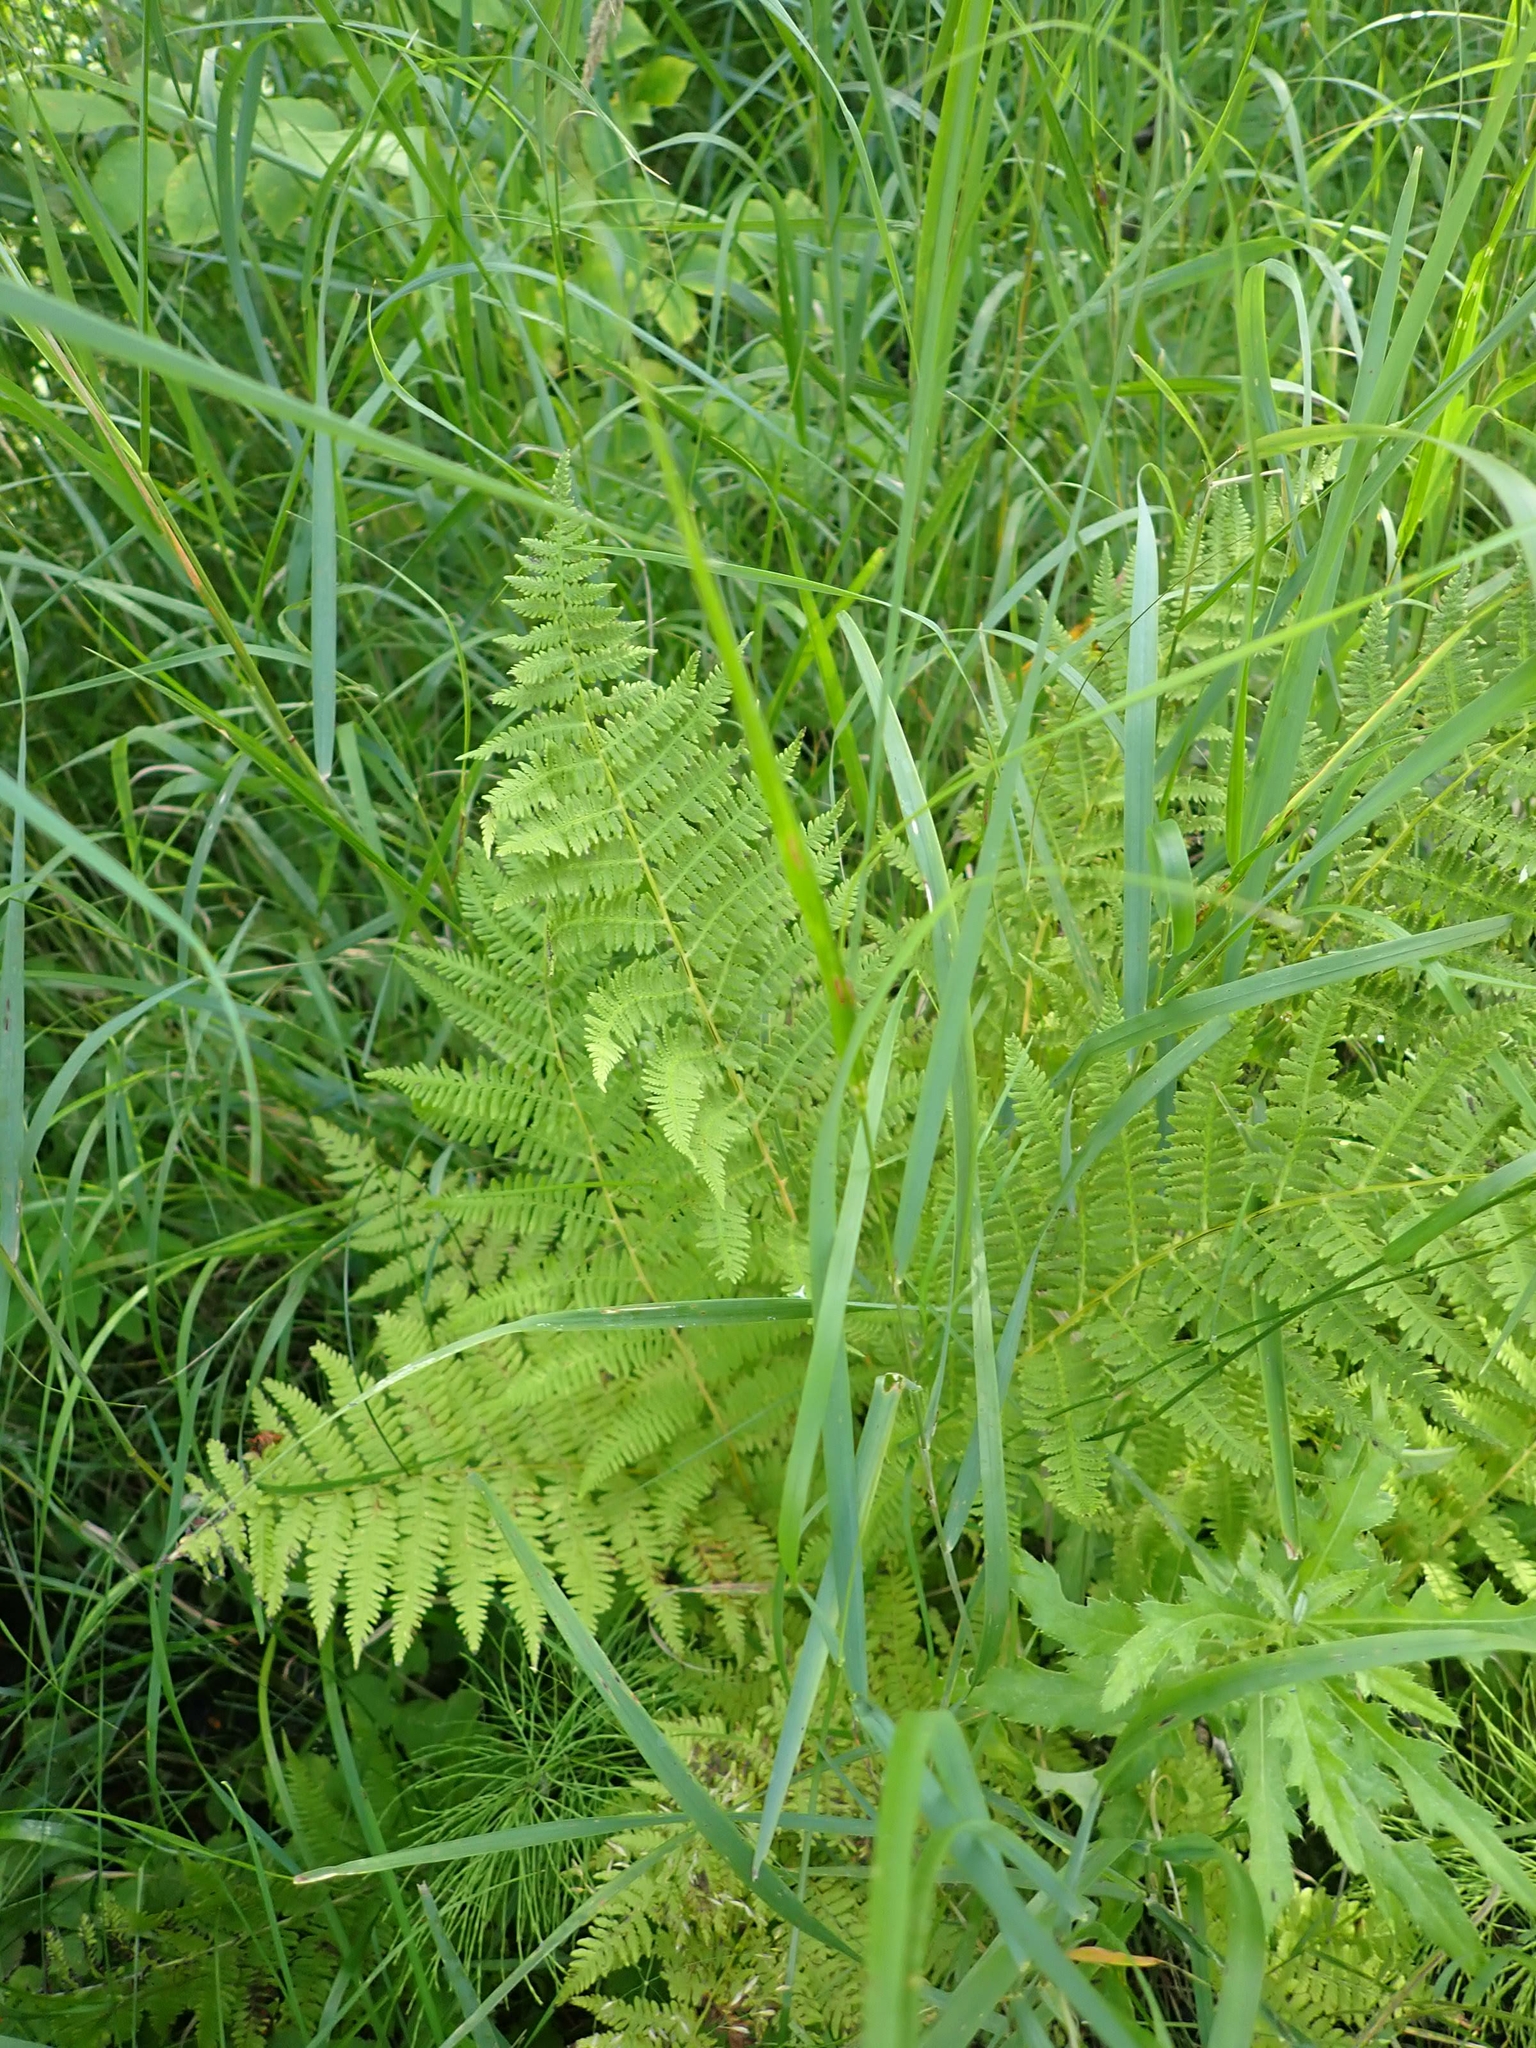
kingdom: Plantae
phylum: Tracheophyta
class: Polypodiopsida
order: Polypodiales
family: Athyriaceae
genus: Athyrium
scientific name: Athyrium angustum
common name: Northern lady fern
